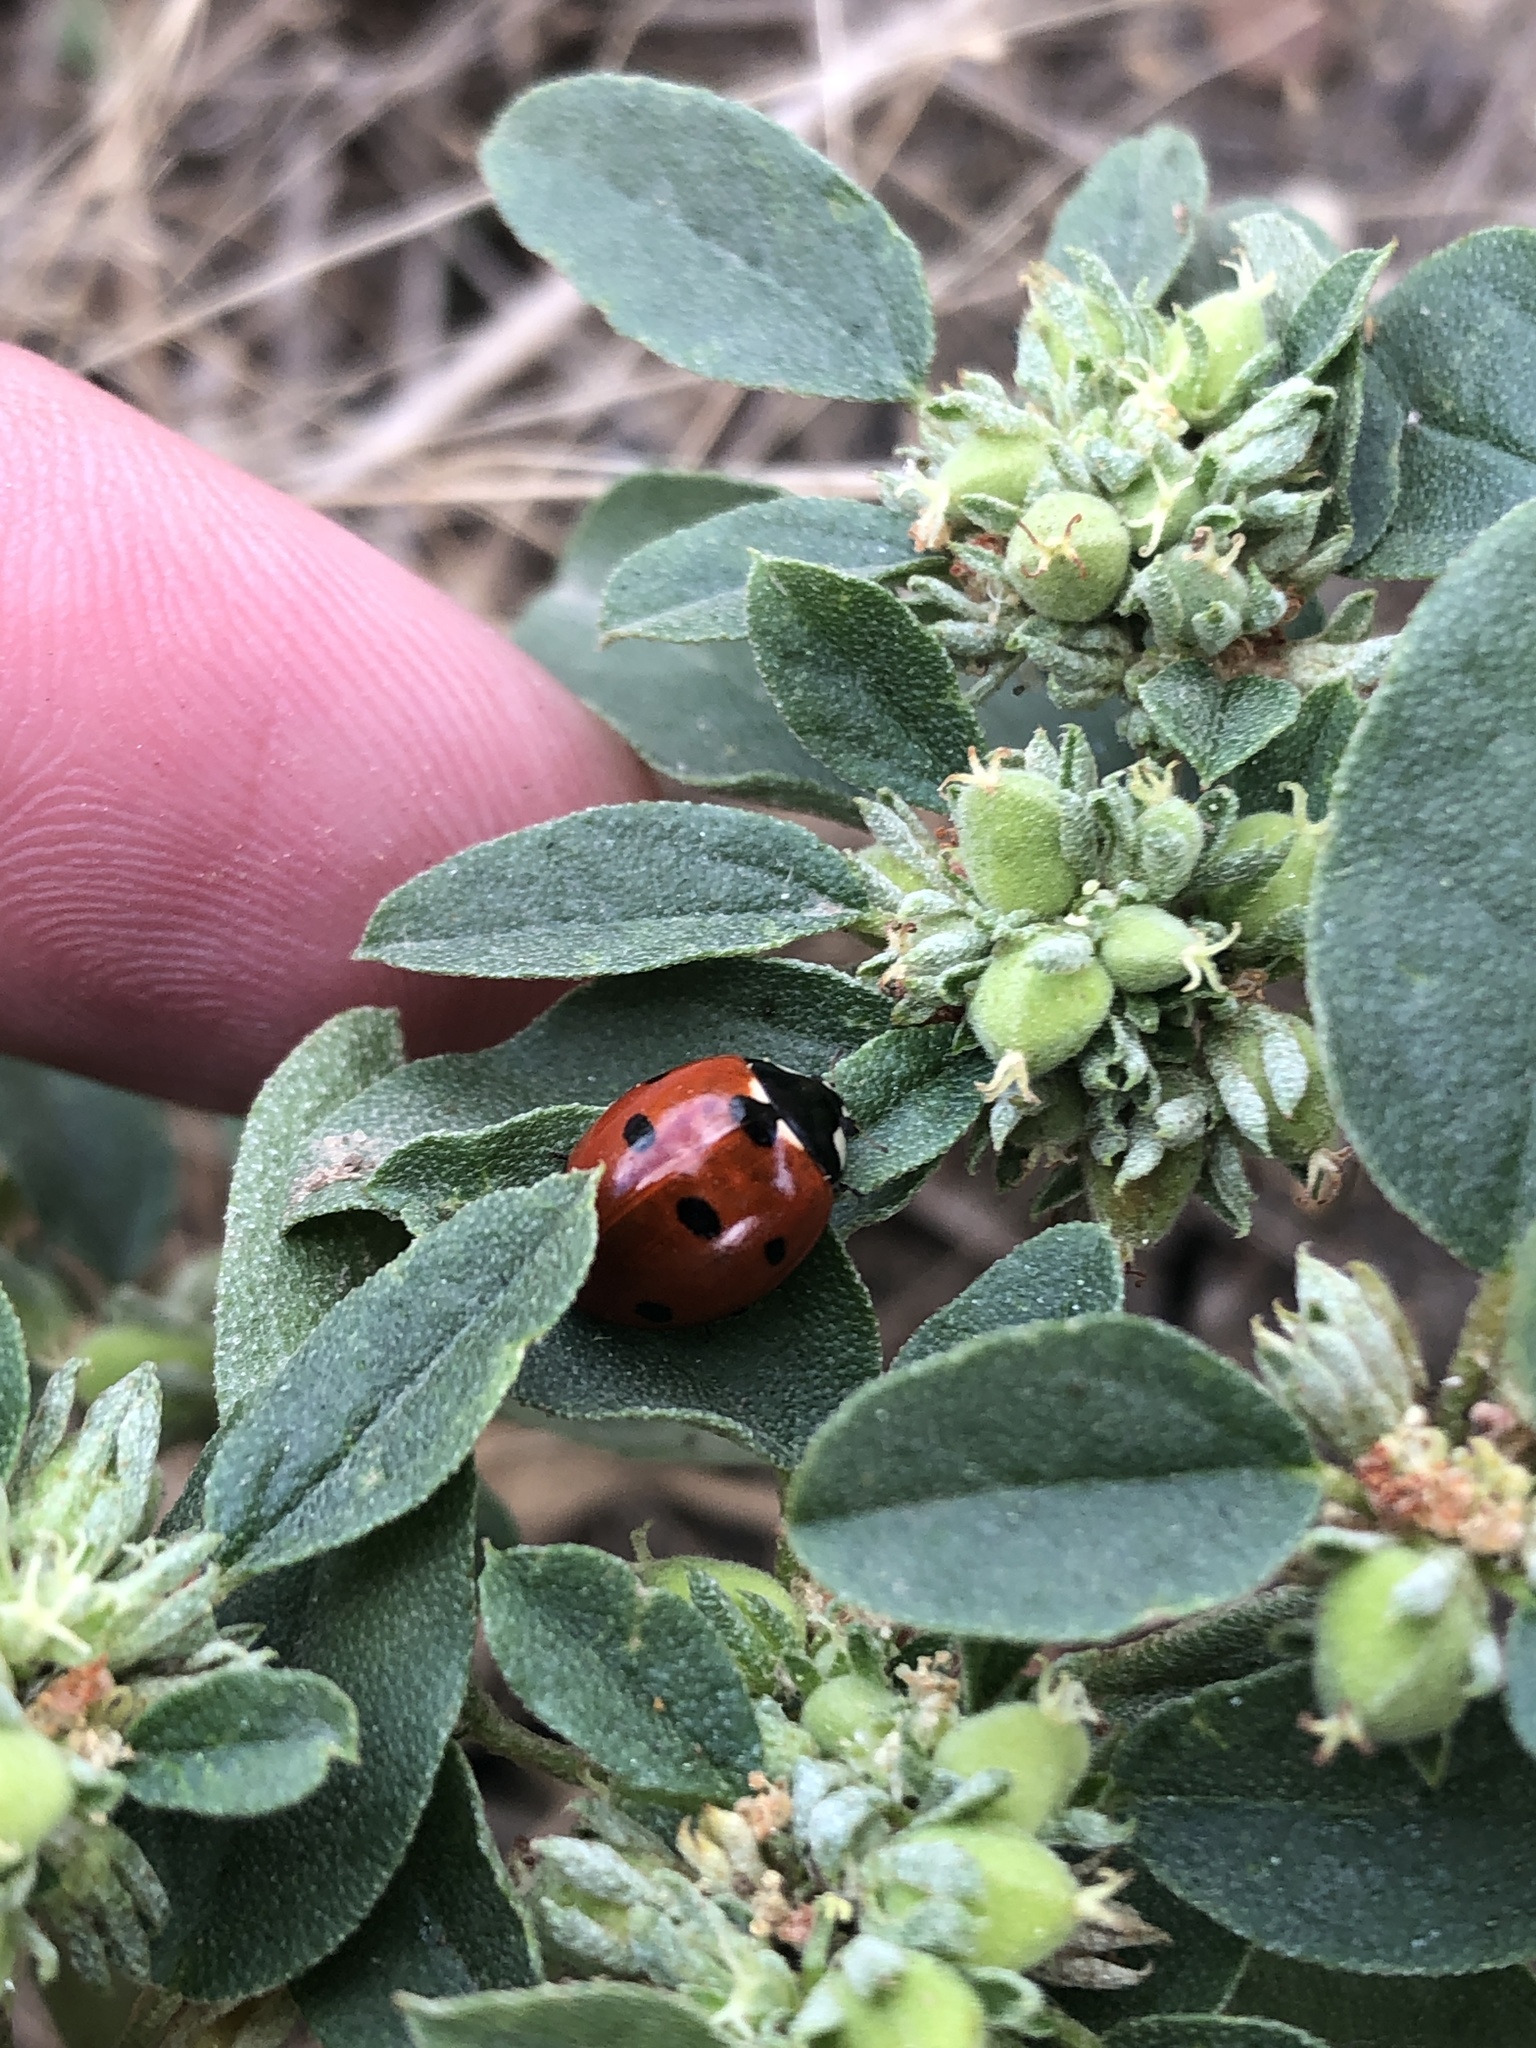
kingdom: Animalia
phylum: Arthropoda
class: Insecta
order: Coleoptera
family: Coccinellidae
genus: Coccinella
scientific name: Coccinella septempunctata
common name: Sevenspotted lady beetle
